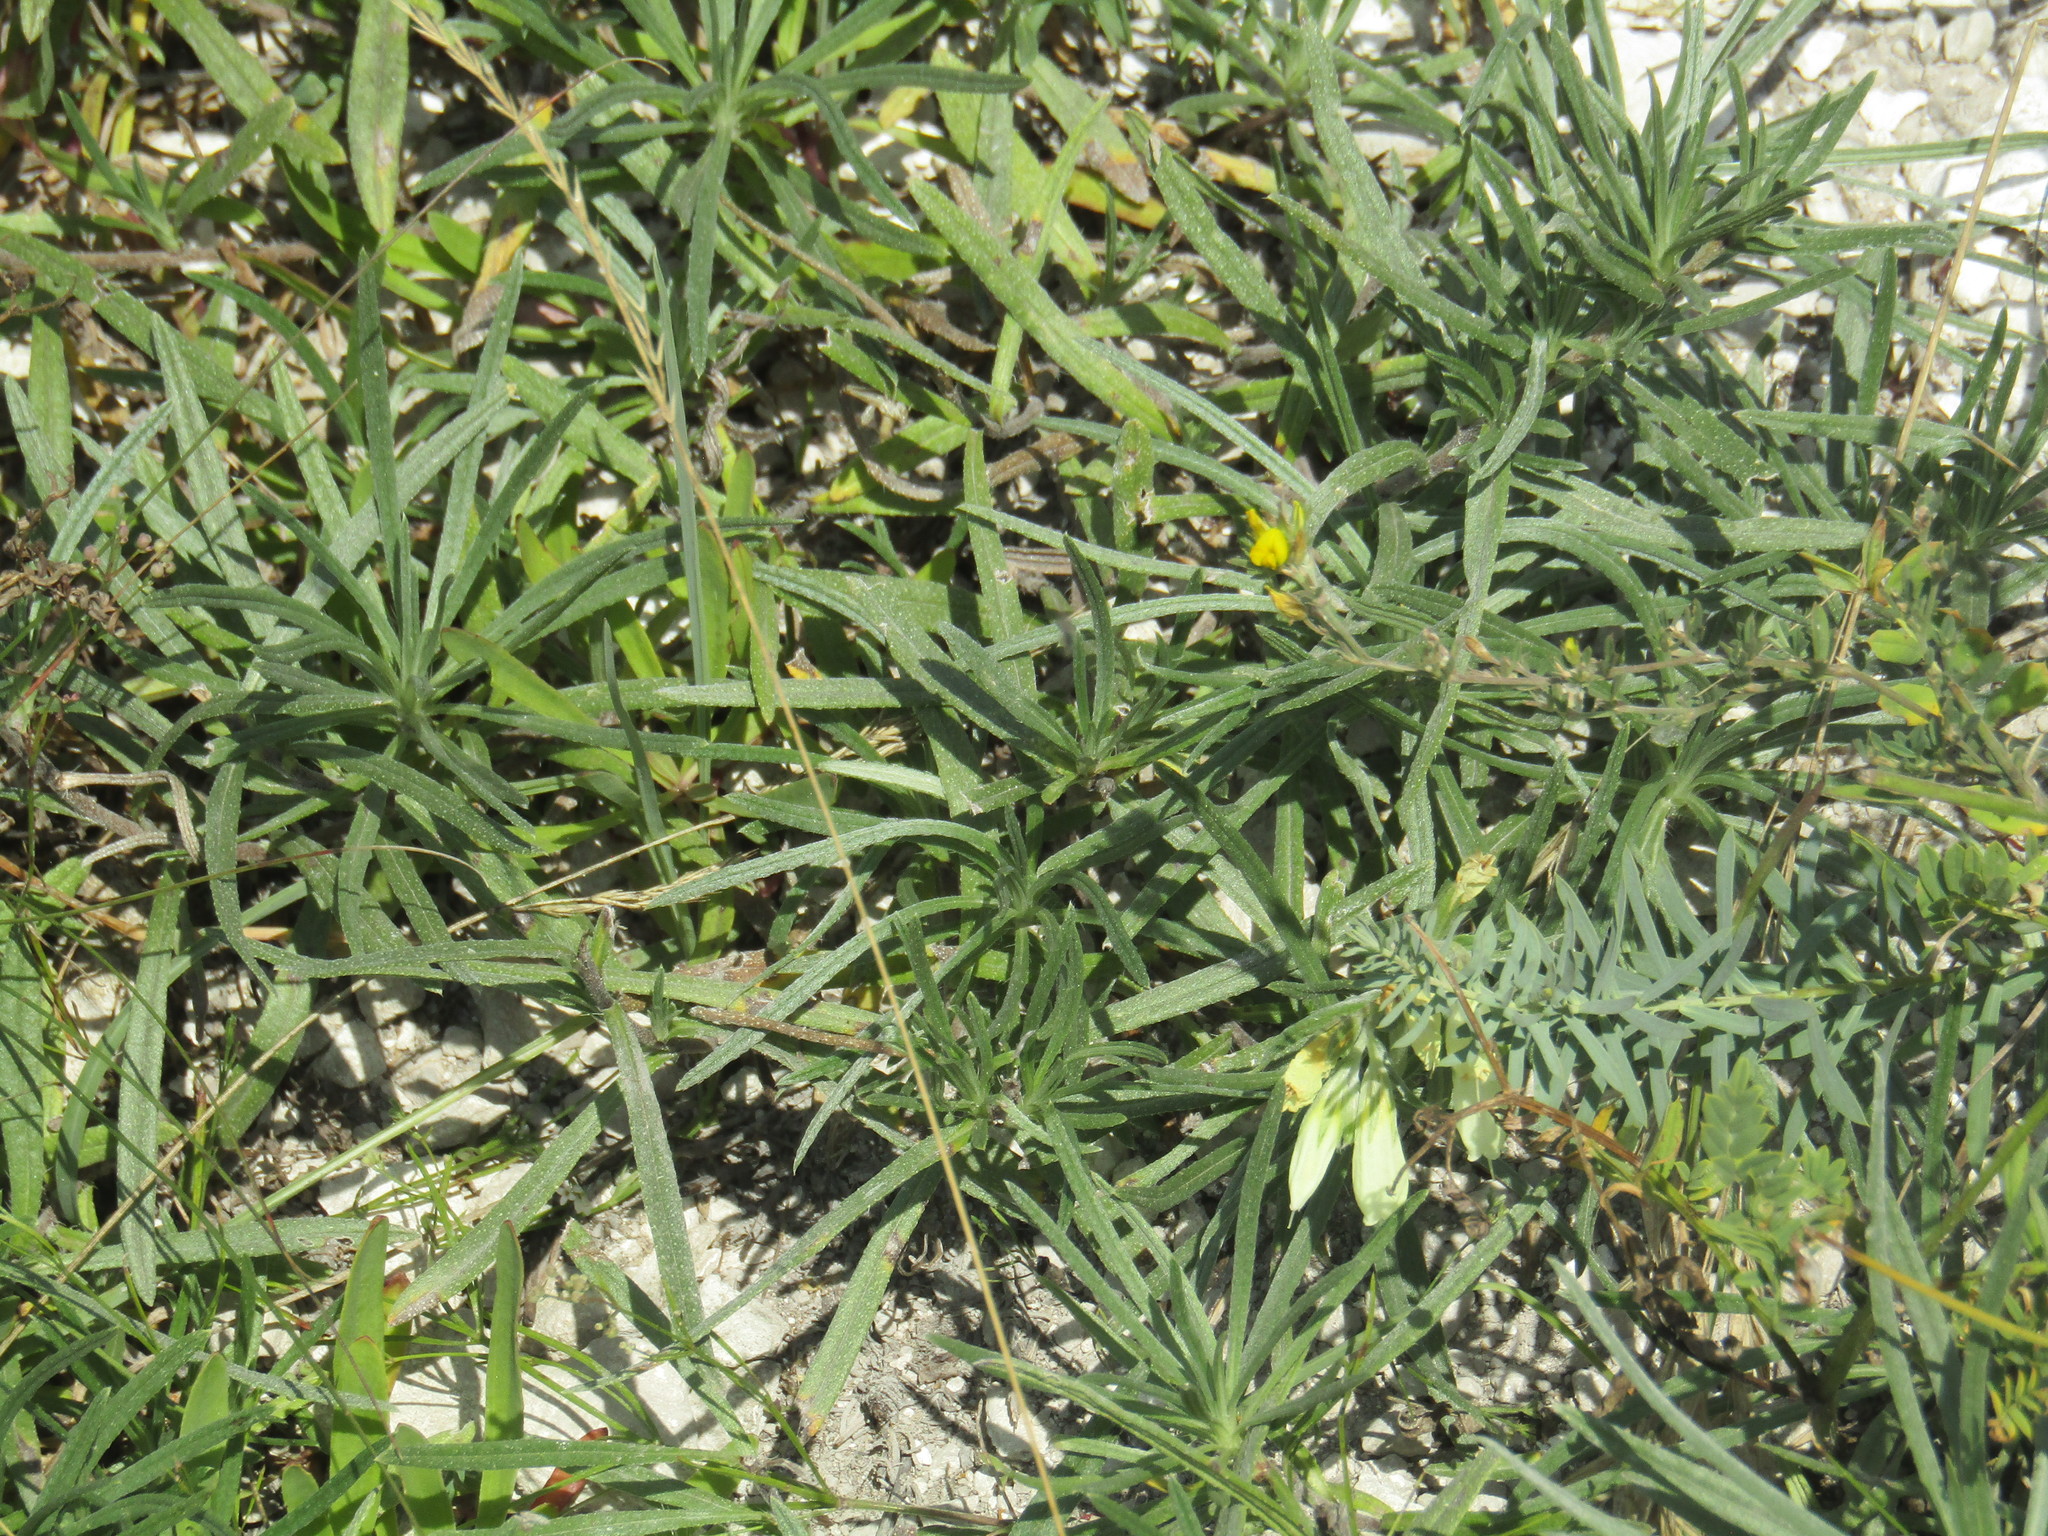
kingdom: Plantae
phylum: Tracheophyta
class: Magnoliopsida
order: Boraginales
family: Boraginaceae
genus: Onosma
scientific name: Onosma simplicissima
